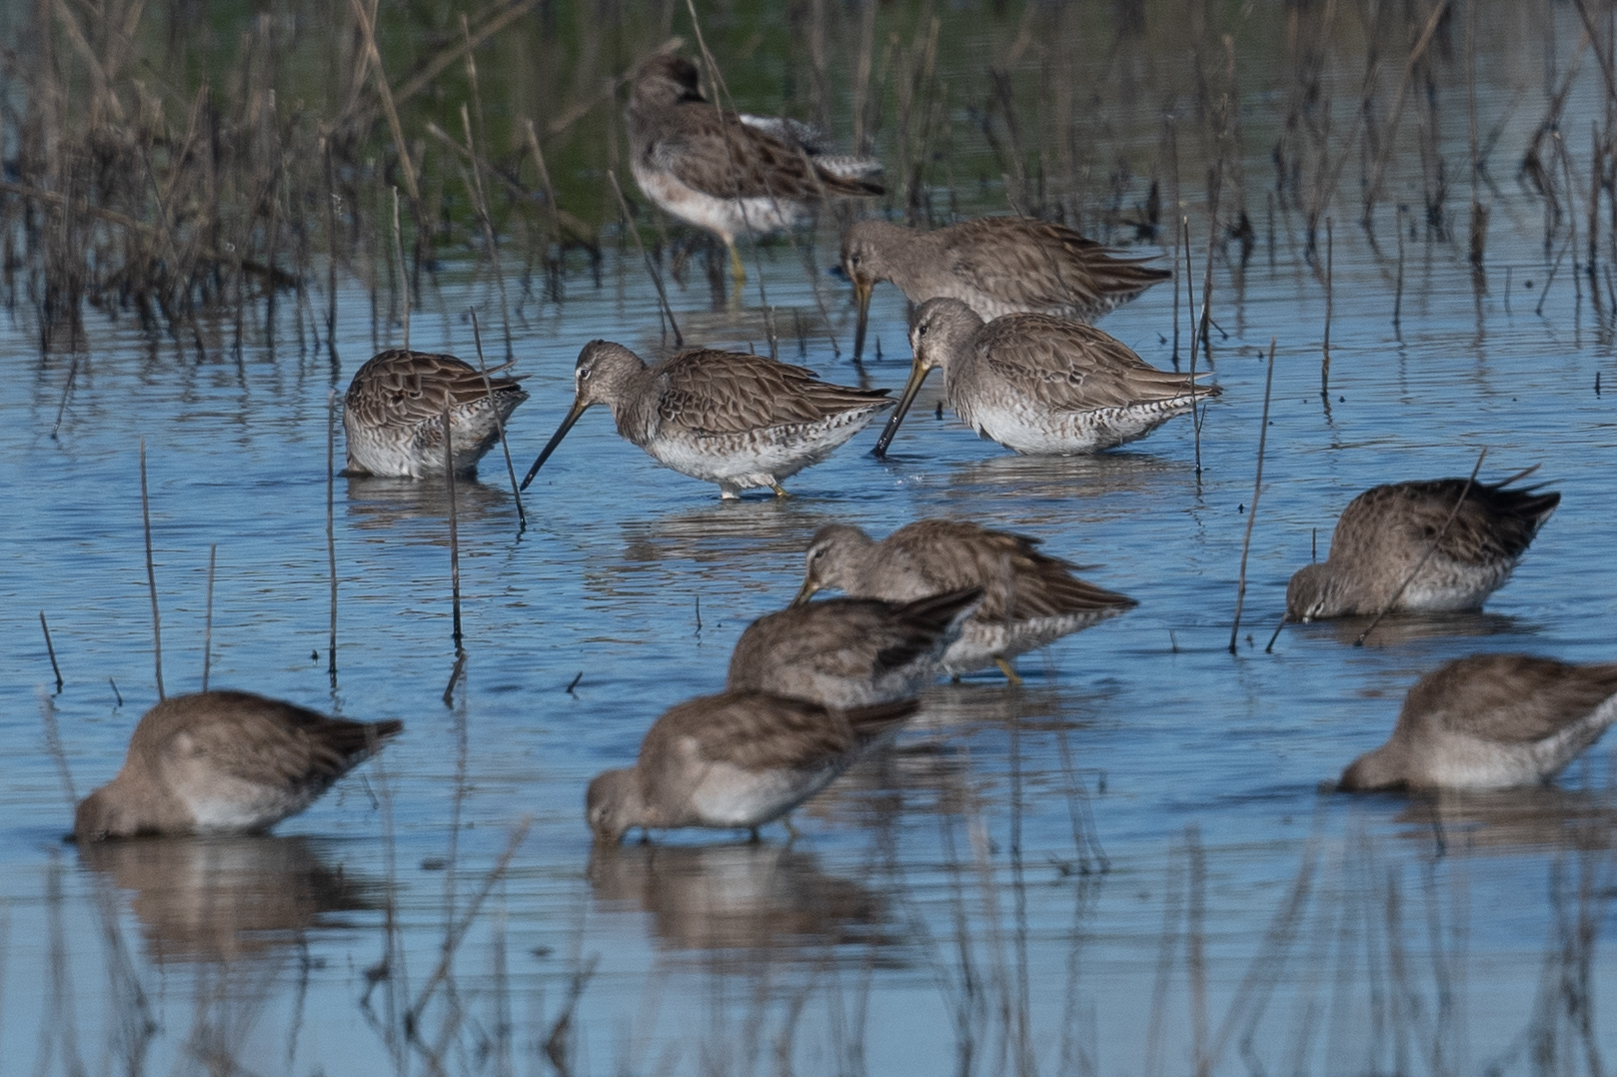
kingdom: Animalia
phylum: Chordata
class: Aves
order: Charadriiformes
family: Scolopacidae
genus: Limnodromus
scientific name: Limnodromus scolopaceus
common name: Long-billed dowitcher
